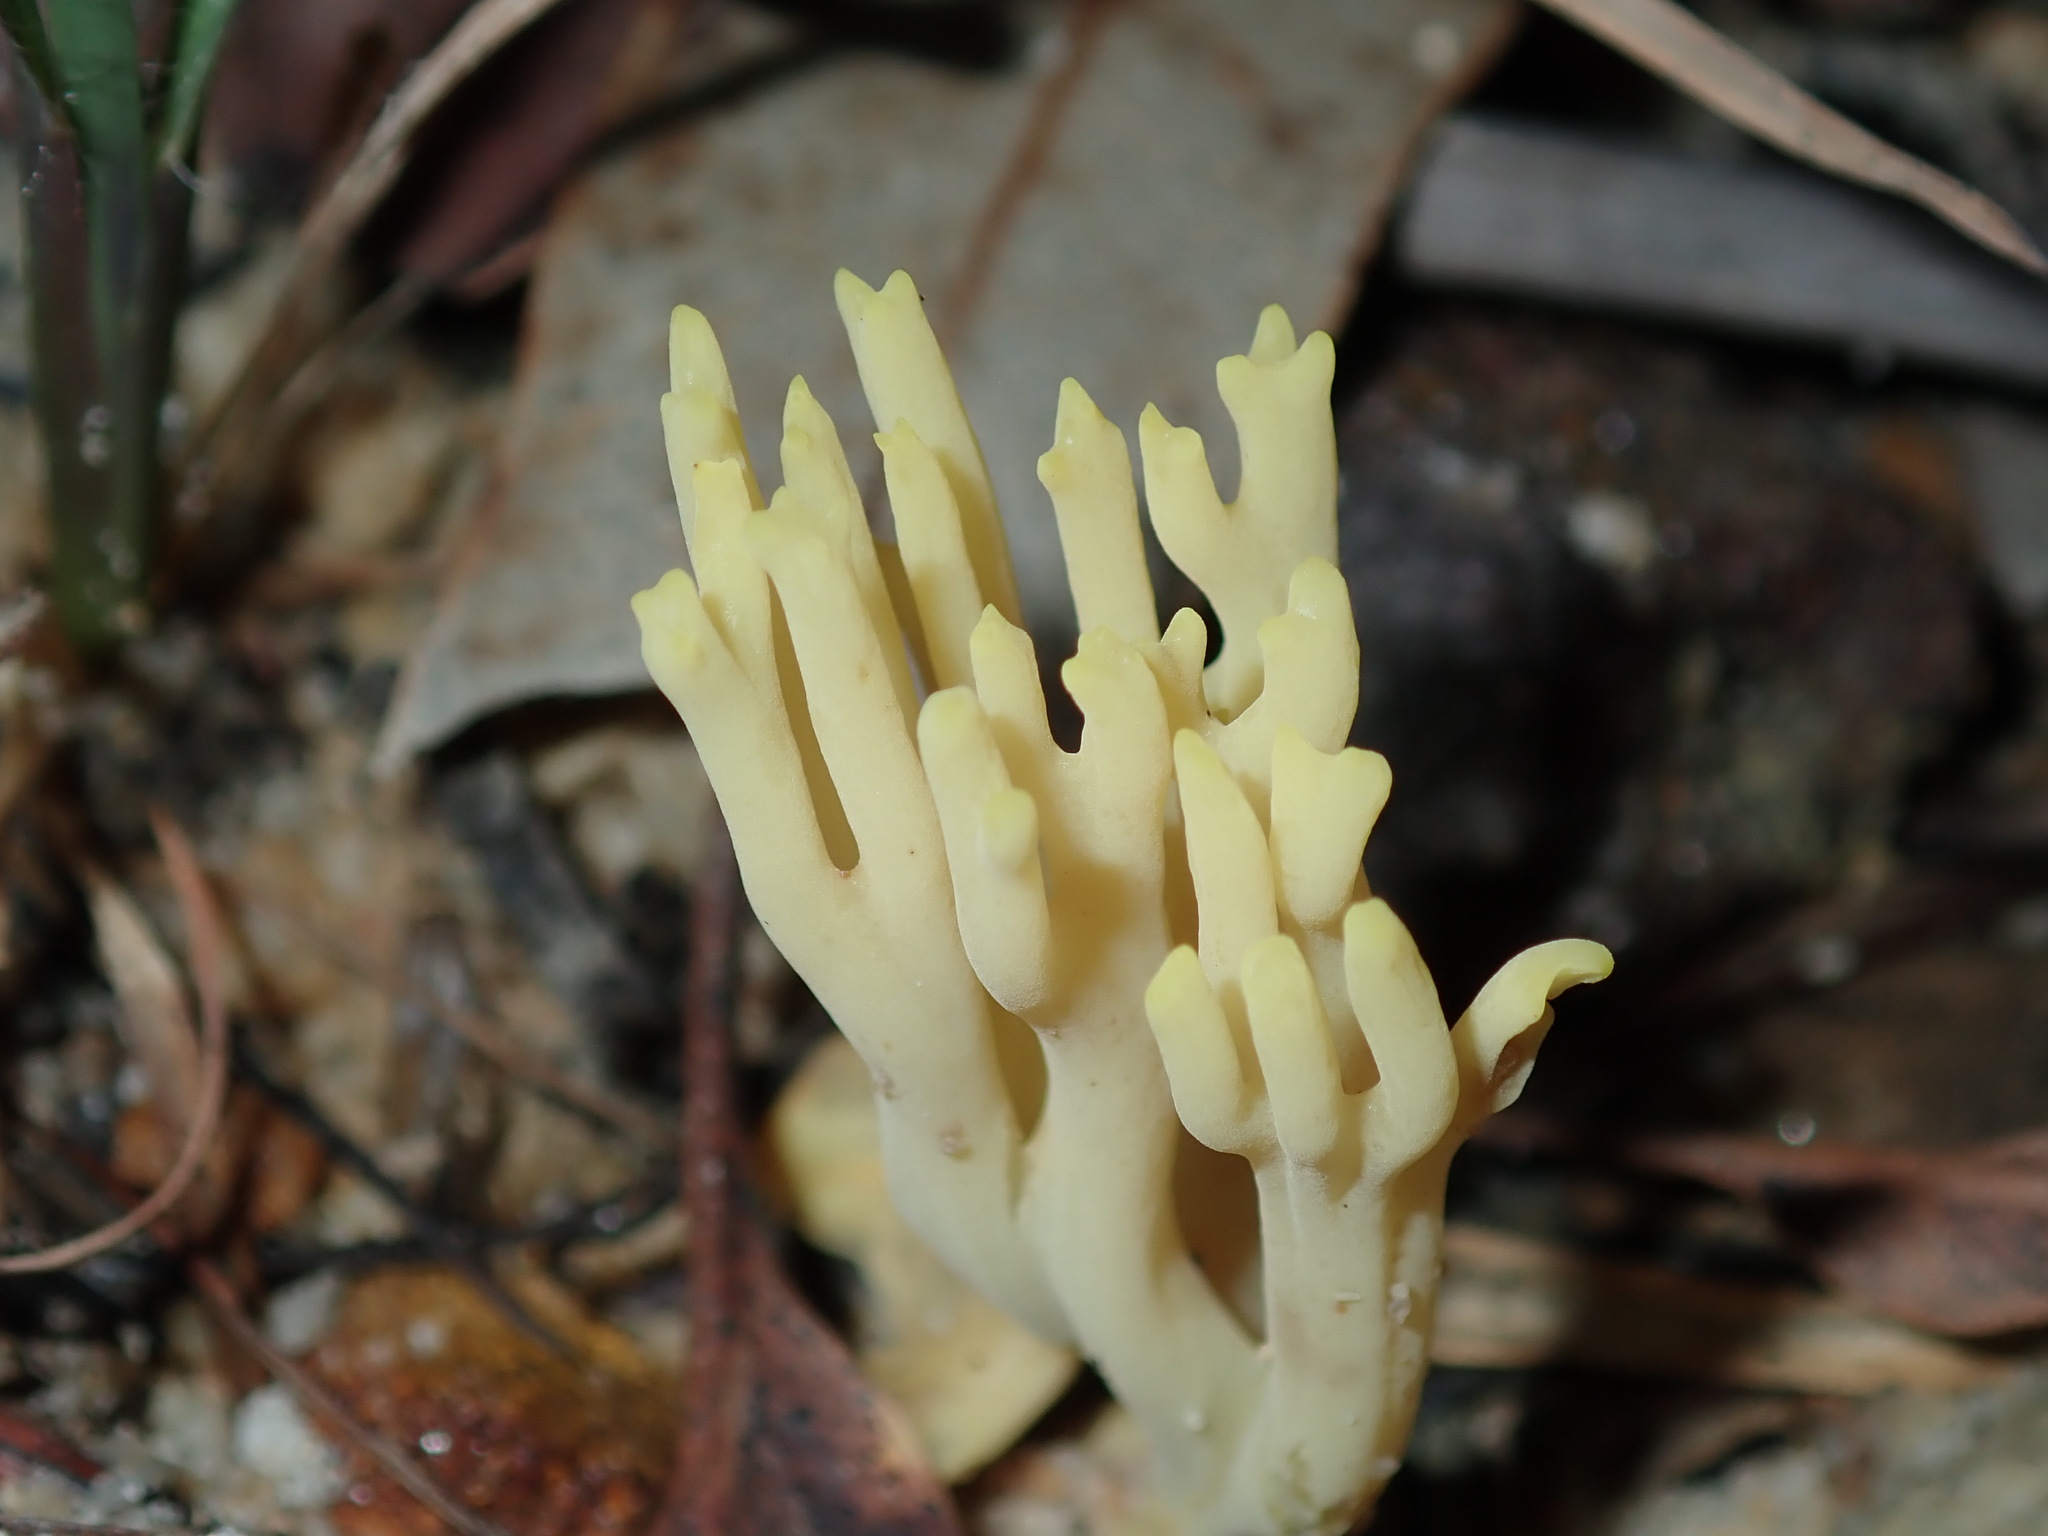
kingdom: Fungi
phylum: Basidiomycota
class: Agaricomycetes
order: Gomphales
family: Gomphaceae
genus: Ramaria
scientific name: Ramaria lorithamnus
